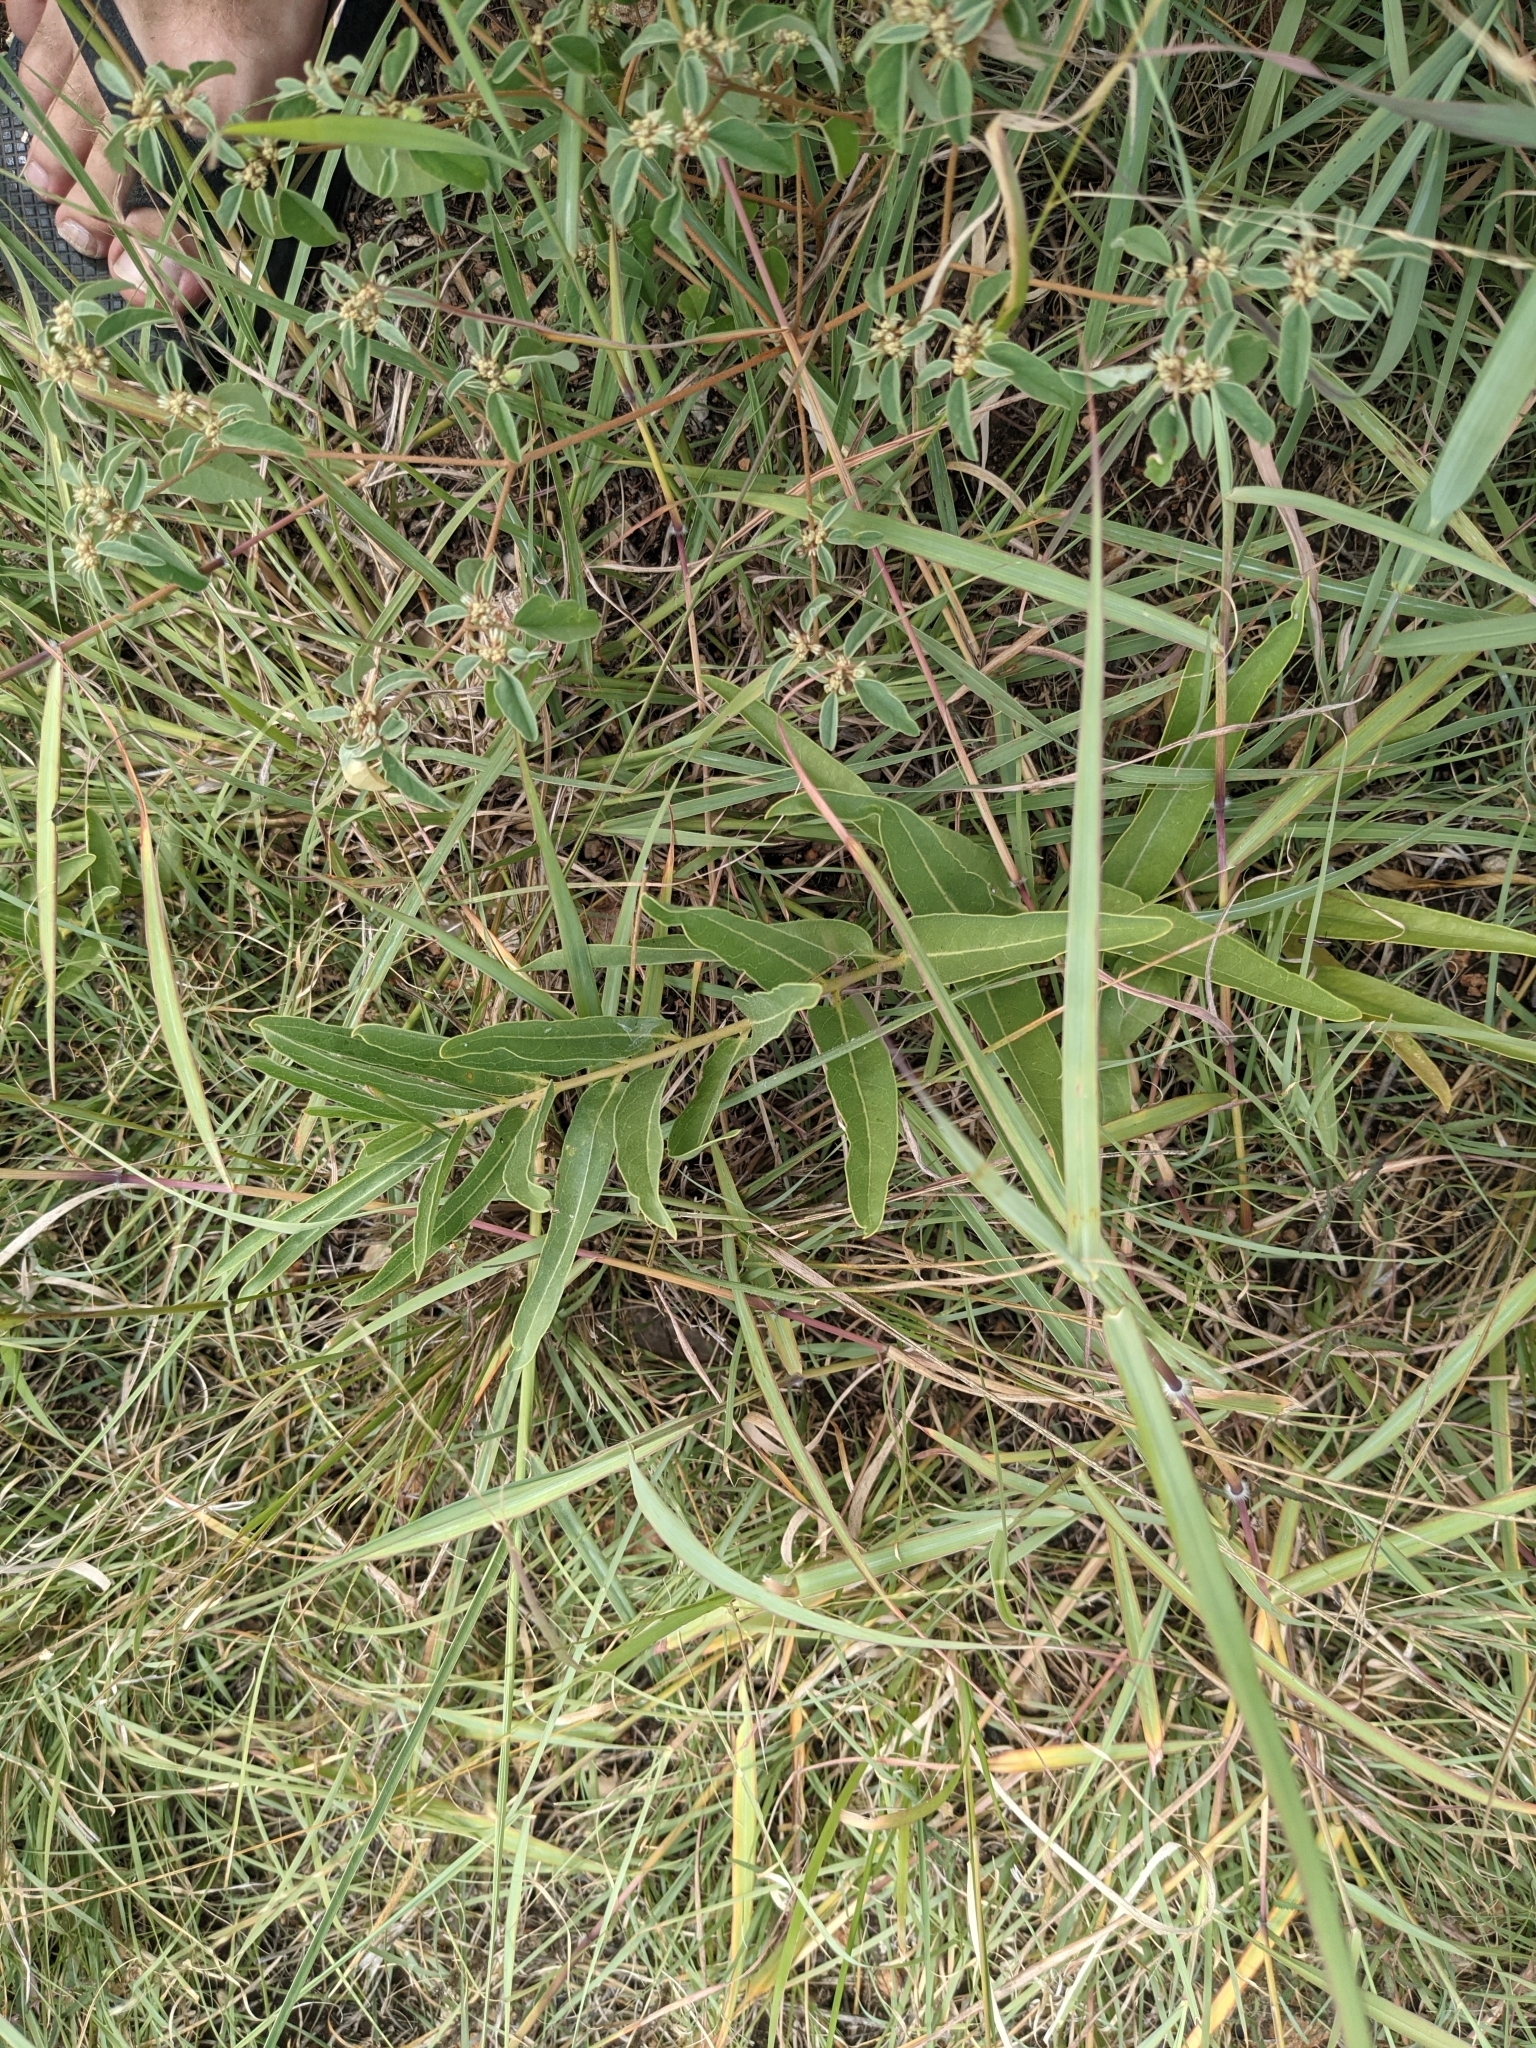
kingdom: Plantae
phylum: Tracheophyta
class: Magnoliopsida
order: Gentianales
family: Apocynaceae
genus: Asclepias
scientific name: Asclepias asperula
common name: Antelope horns
